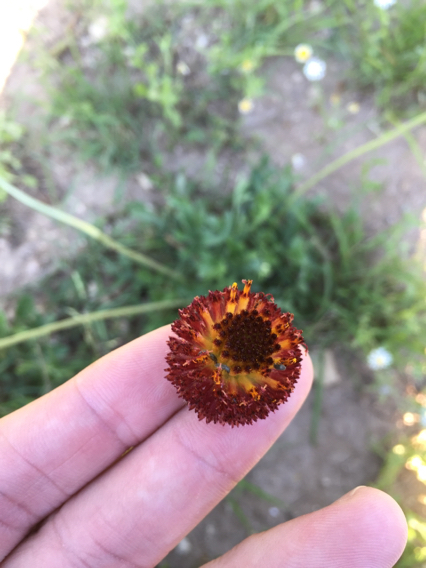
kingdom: Plantae
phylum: Tracheophyta
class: Magnoliopsida
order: Asterales
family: Asteraceae
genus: Gaillardia
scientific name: Gaillardia suavis
